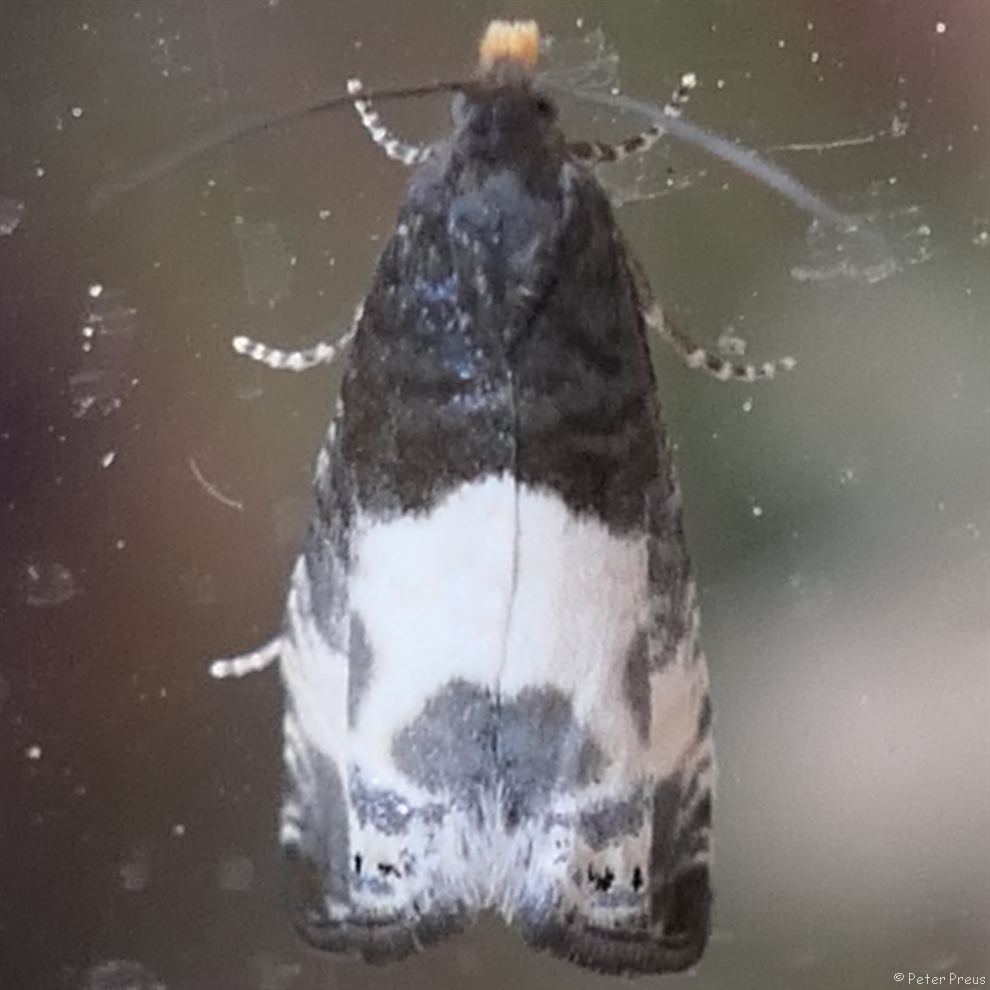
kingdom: Animalia
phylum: Arthropoda
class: Insecta
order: Lepidoptera
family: Tortricidae
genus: Notocelia
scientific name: Notocelia cynosbatella
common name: Yellow-faced bell moth
